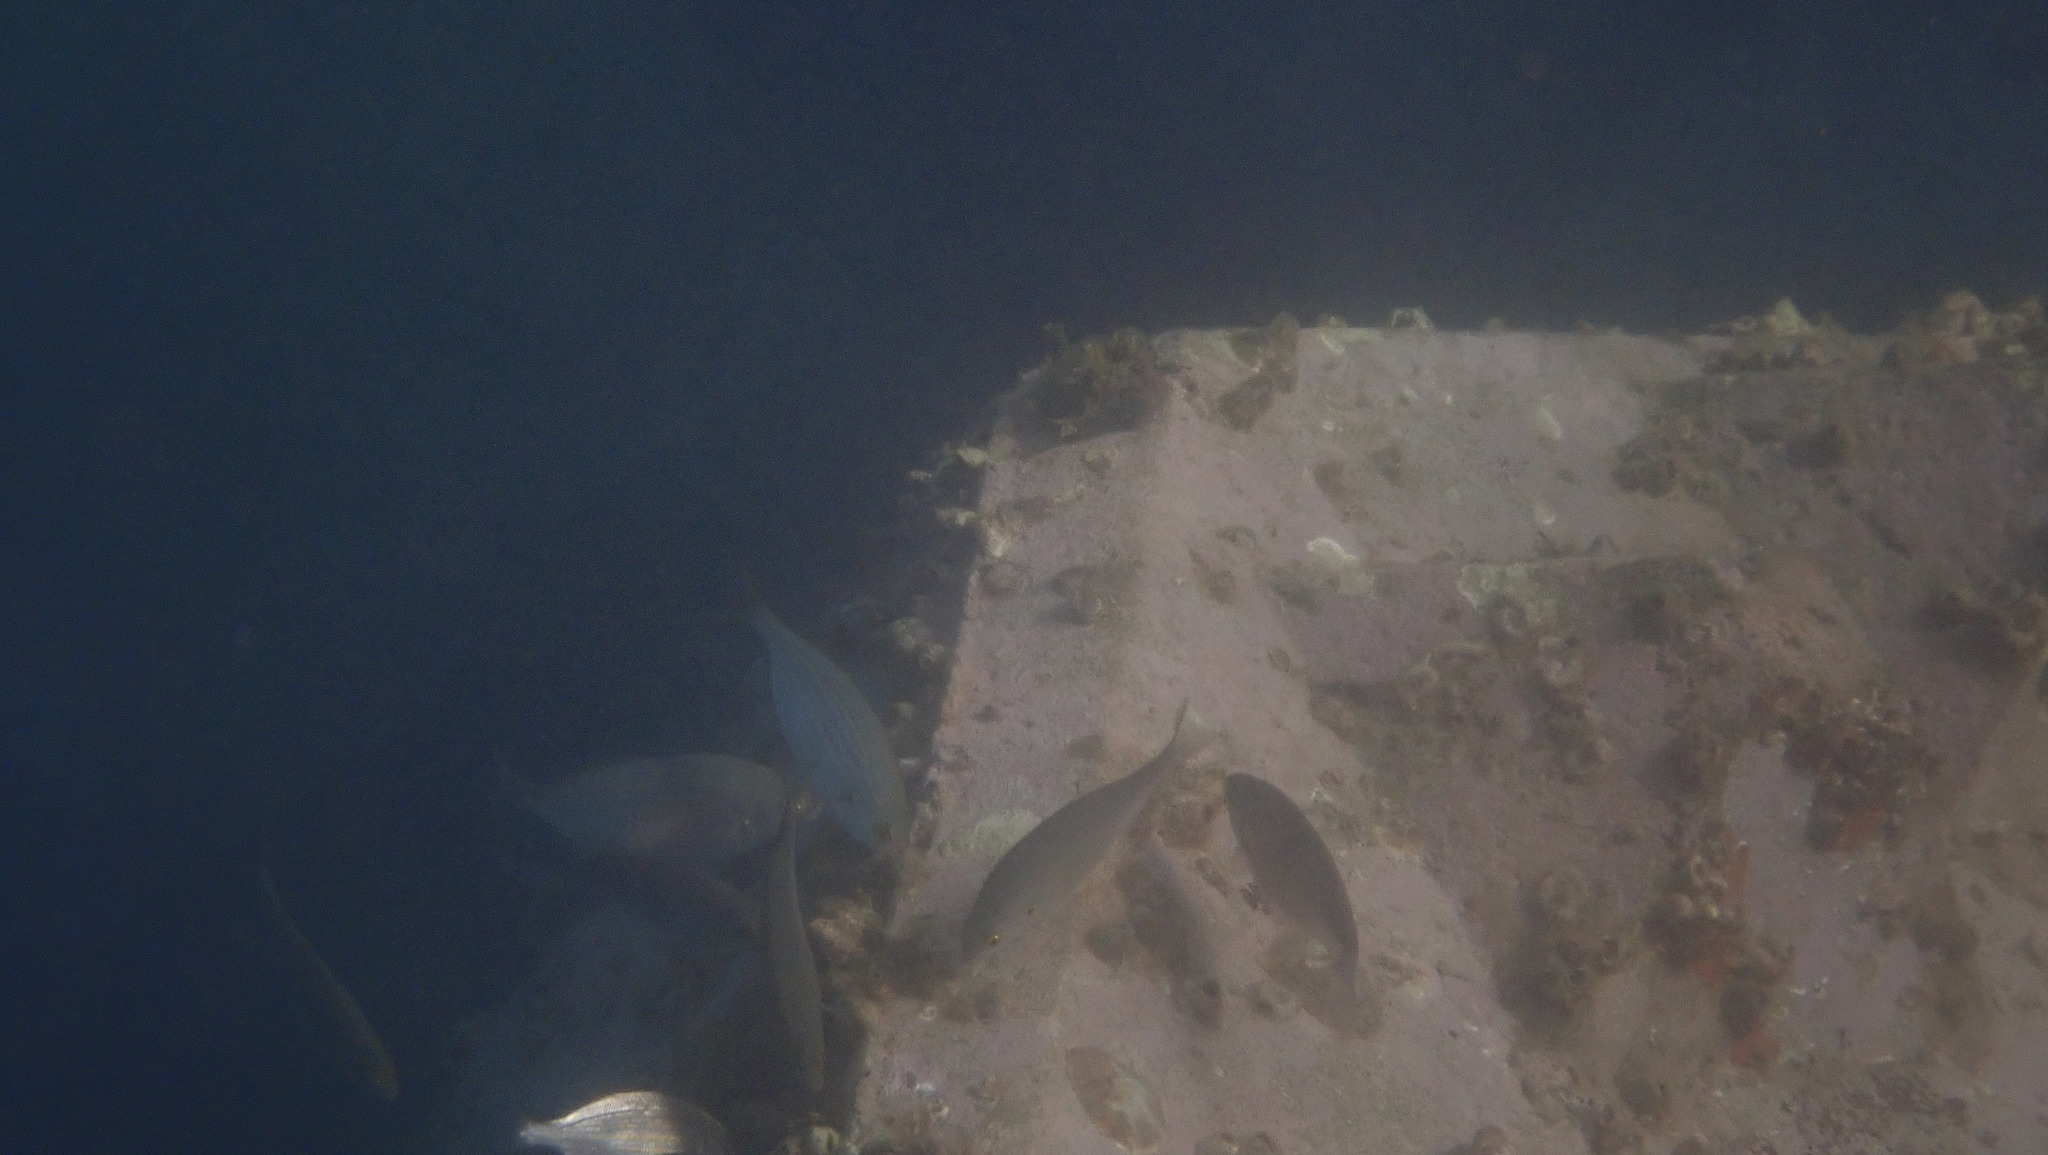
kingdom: Animalia
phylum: Chordata
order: Perciformes
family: Sparidae
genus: Sarpa
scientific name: Sarpa salpa
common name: Salema
